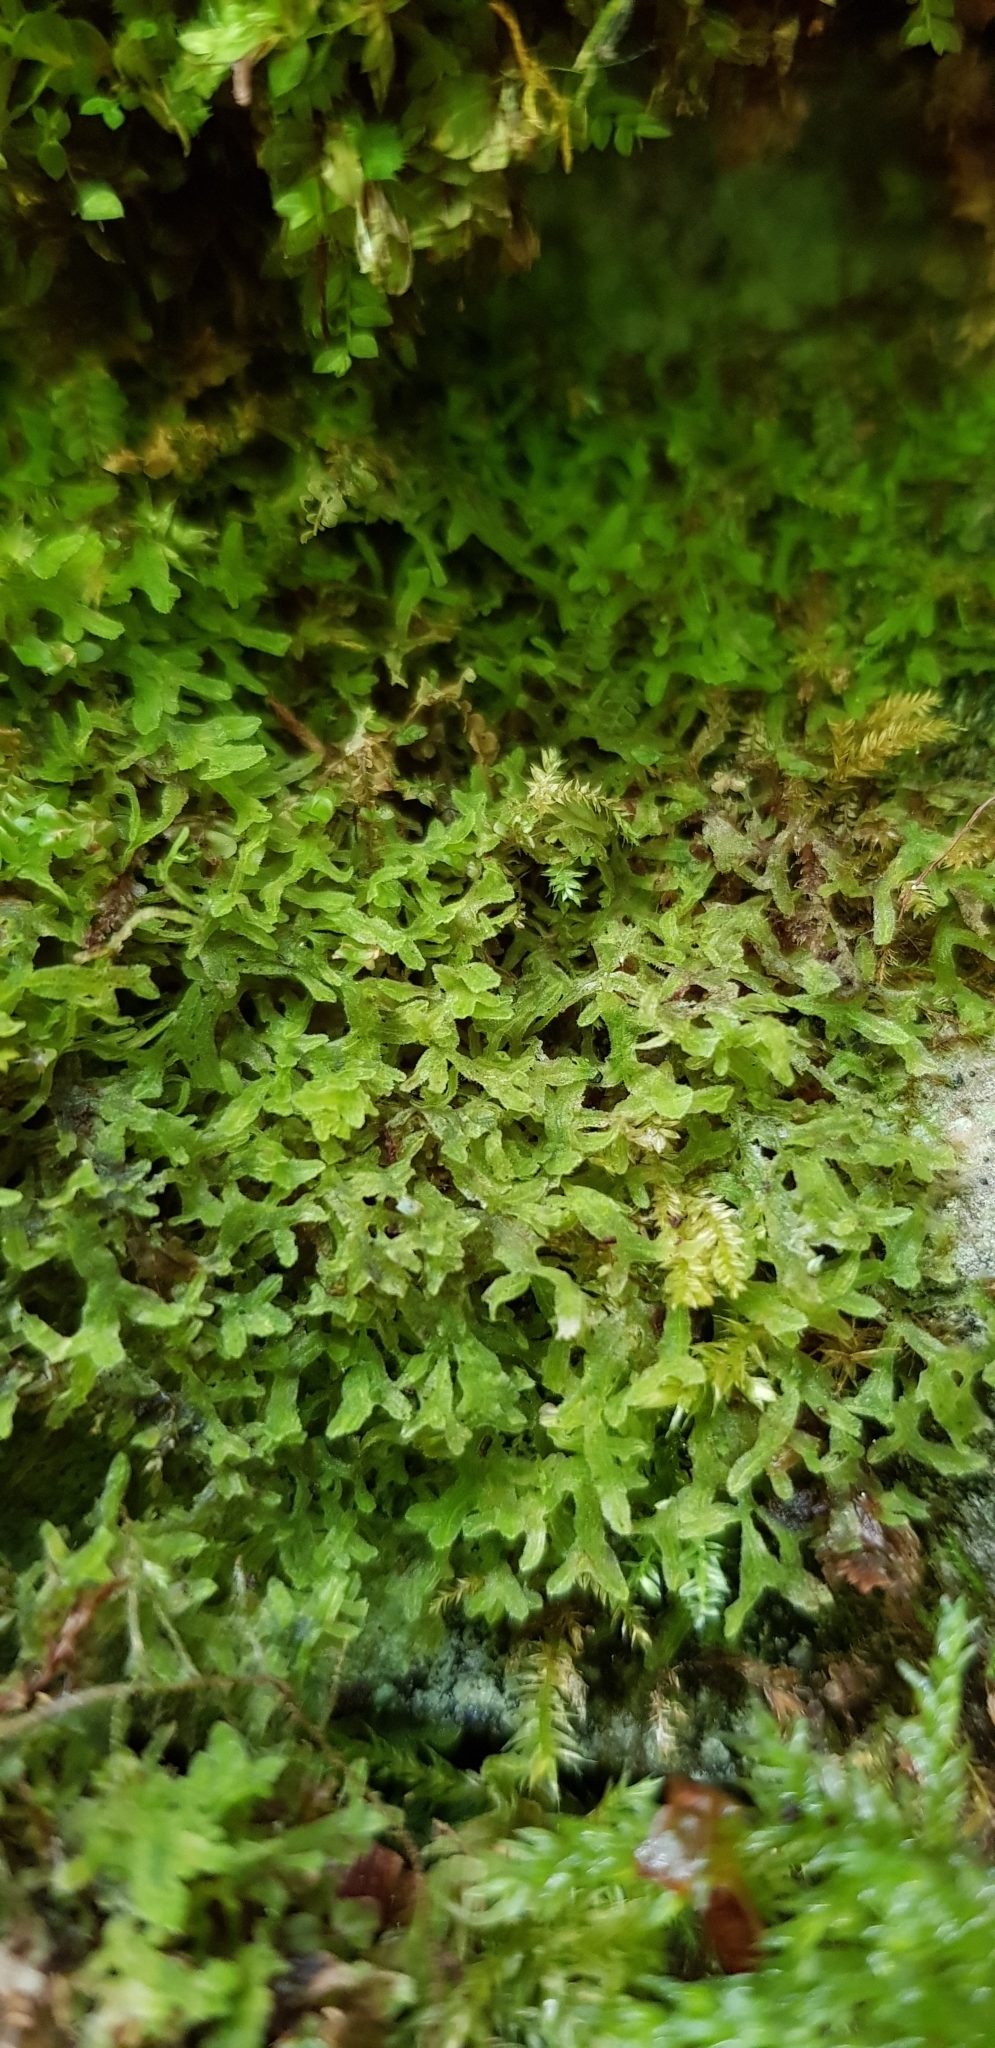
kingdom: Plantae
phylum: Marchantiophyta
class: Jungermanniopsida
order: Metzgeriales
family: Metzgeriaceae
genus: Metzgeria
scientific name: Metzgeria pubescens
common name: Downy veilwort
